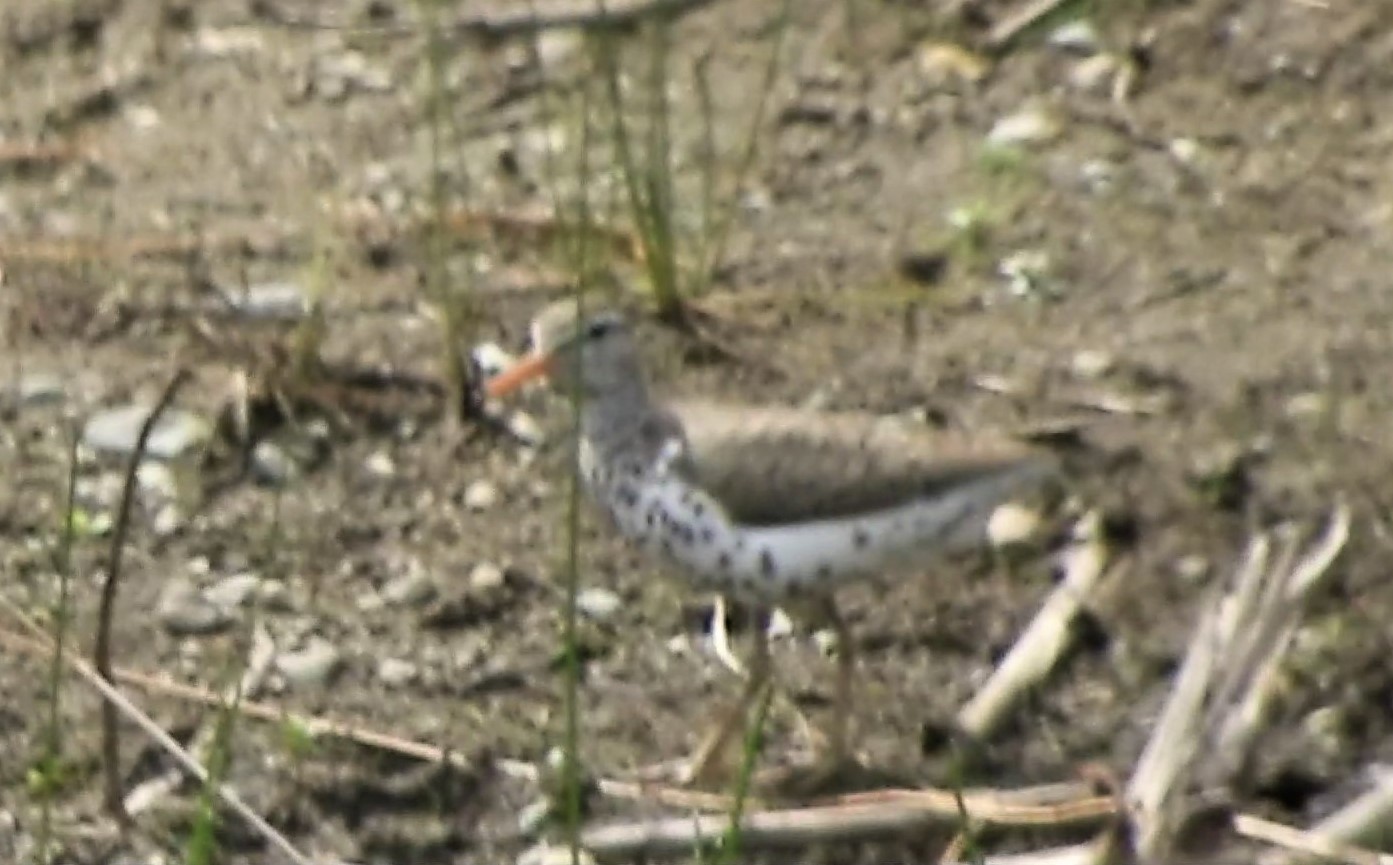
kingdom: Animalia
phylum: Chordata
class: Aves
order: Charadriiformes
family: Scolopacidae
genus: Actitis
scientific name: Actitis macularius
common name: Spotted sandpiper
